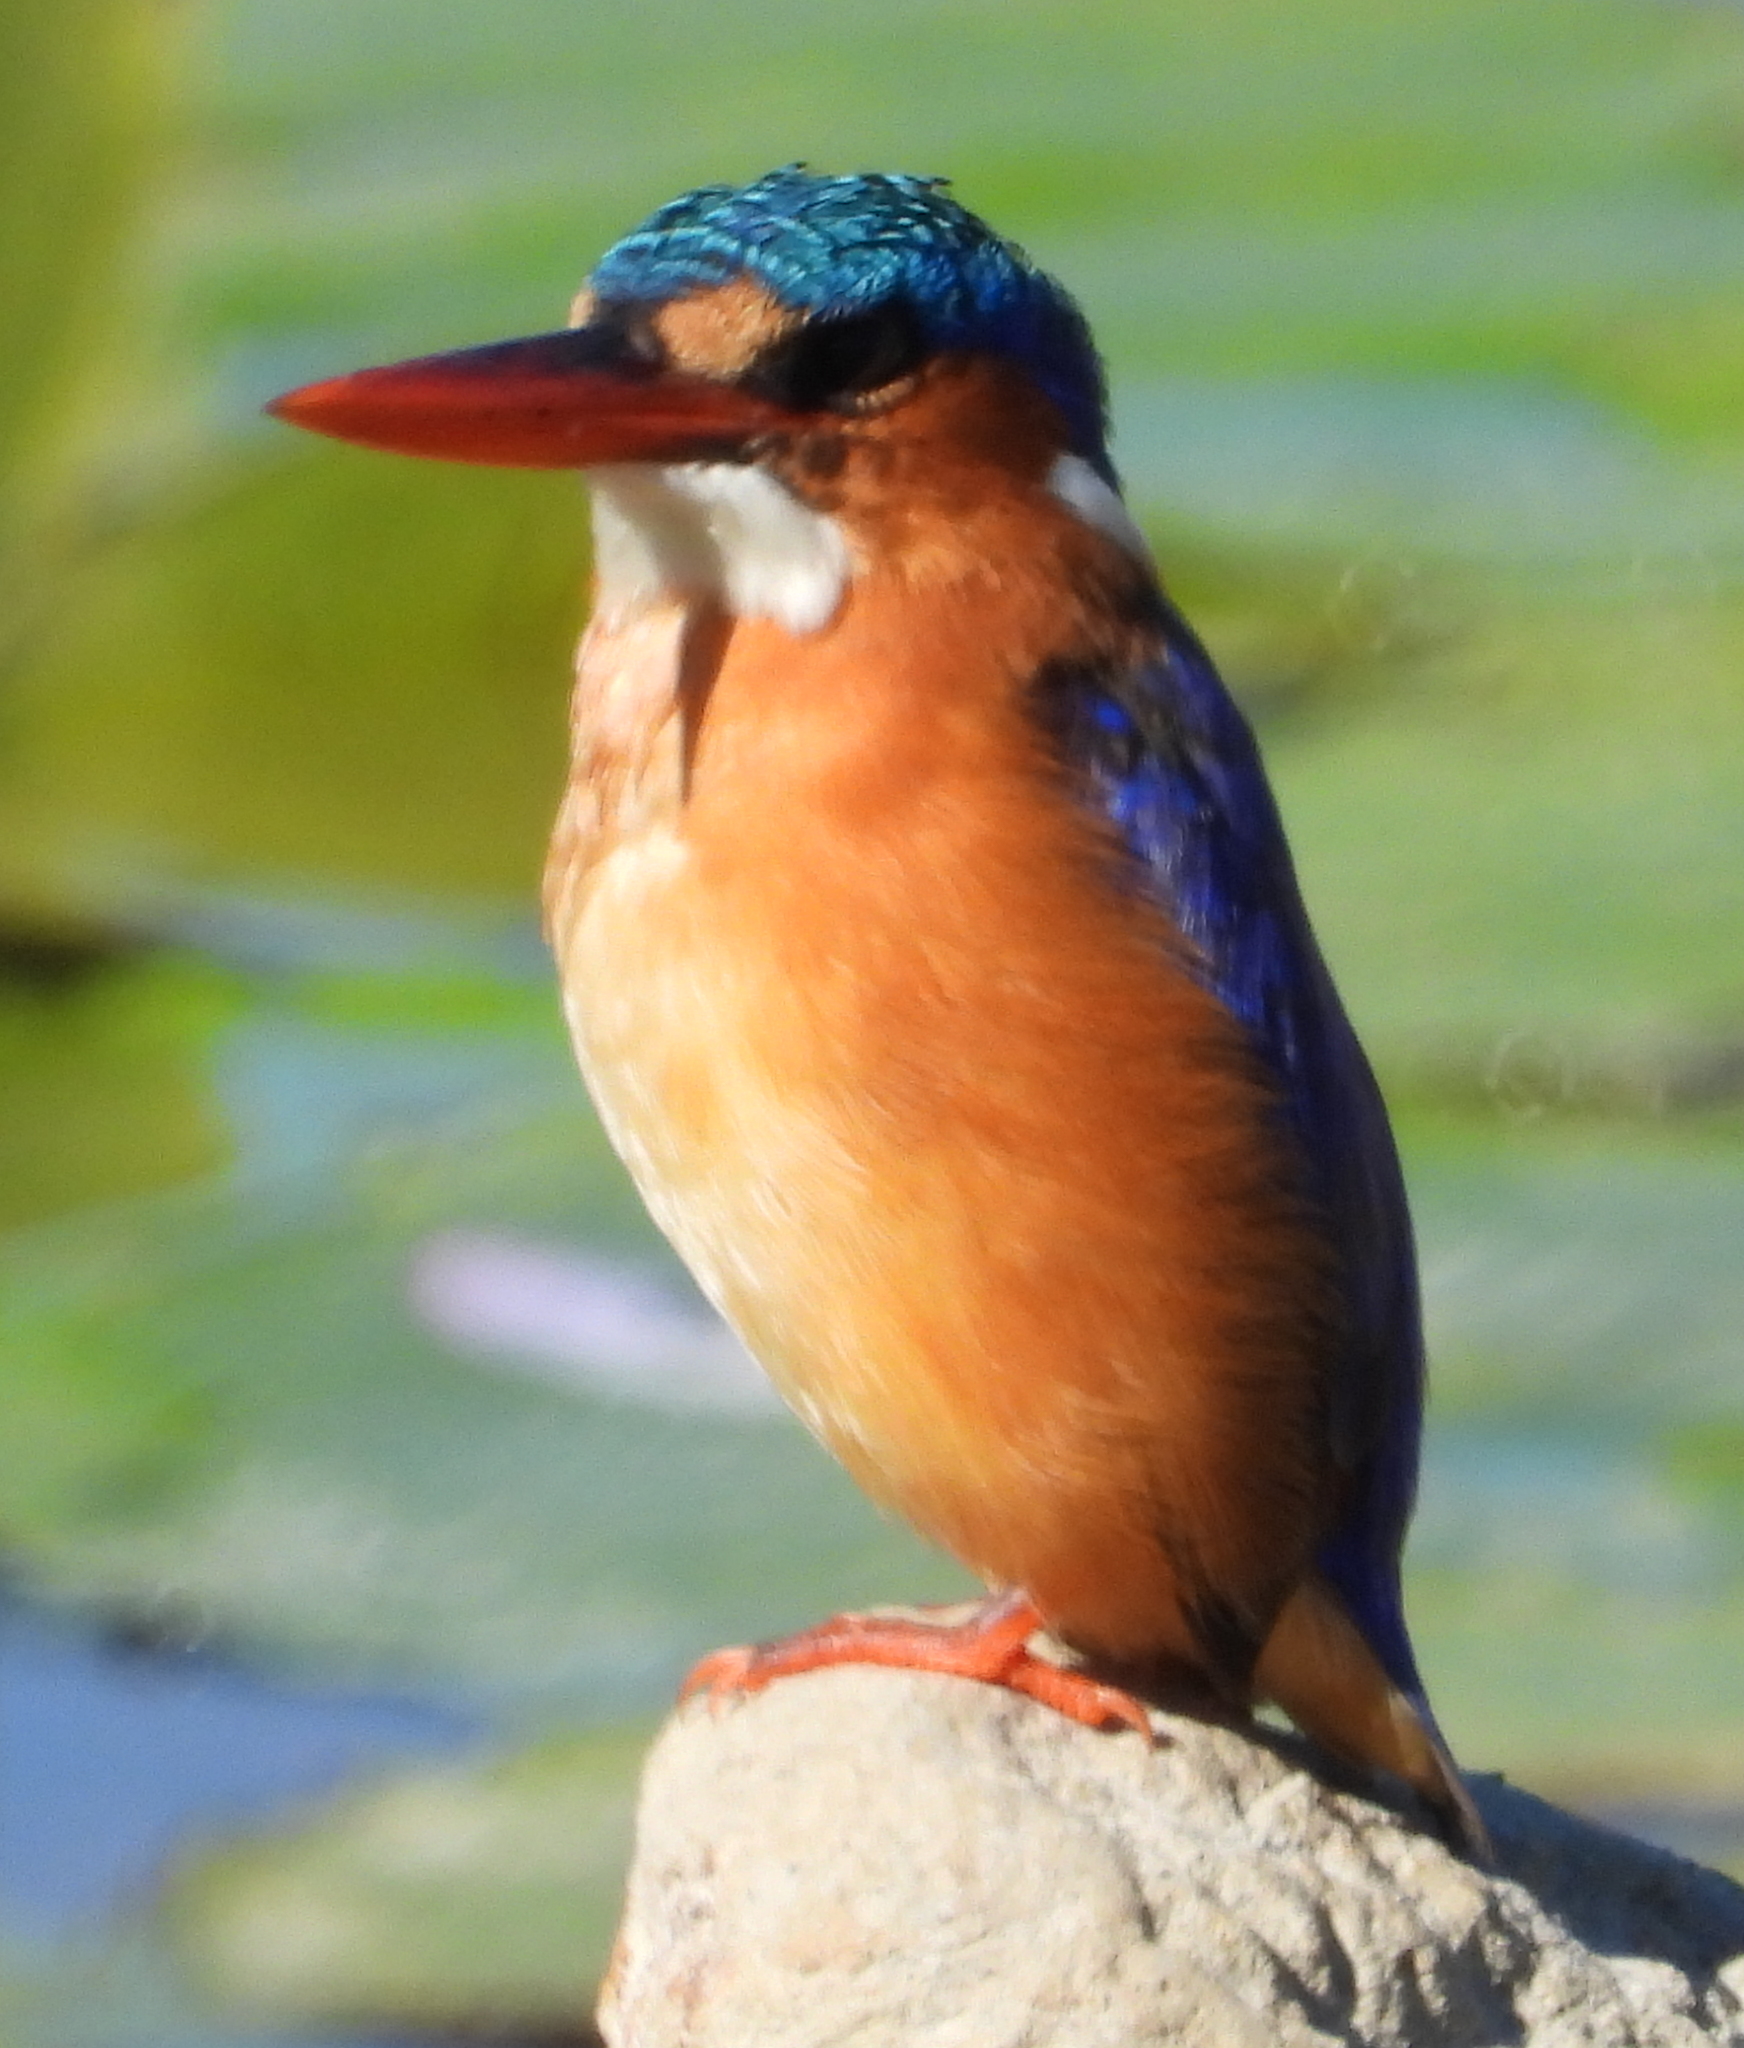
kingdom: Animalia
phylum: Chordata
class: Aves
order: Coraciiformes
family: Alcedinidae
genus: Corythornis
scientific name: Corythornis cristatus
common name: Malachite kingfisher
